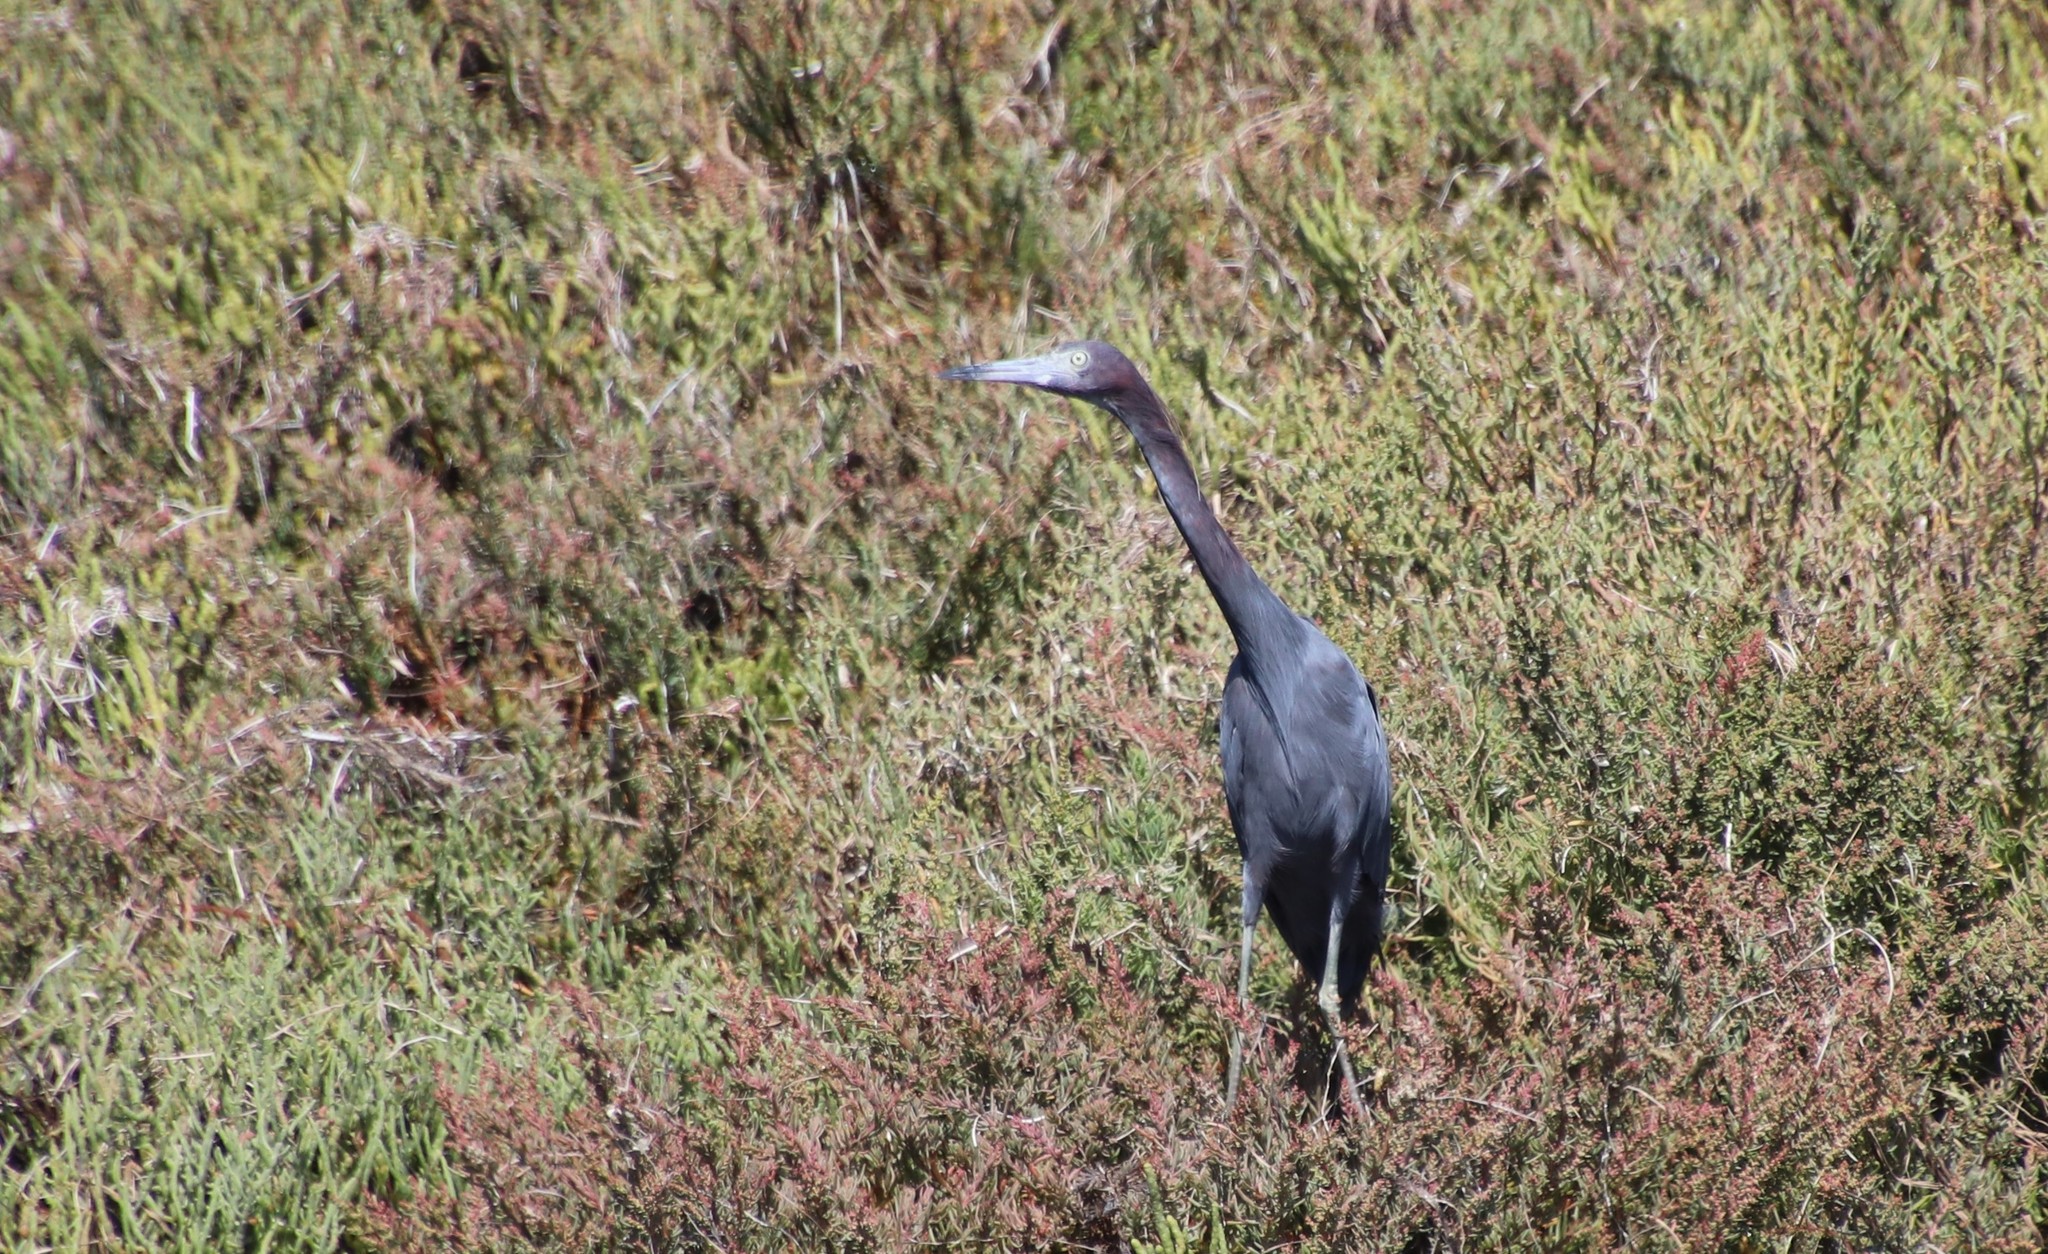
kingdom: Animalia
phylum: Chordata
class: Aves
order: Pelecaniformes
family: Ardeidae
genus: Egretta
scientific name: Egretta caerulea
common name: Little blue heron
